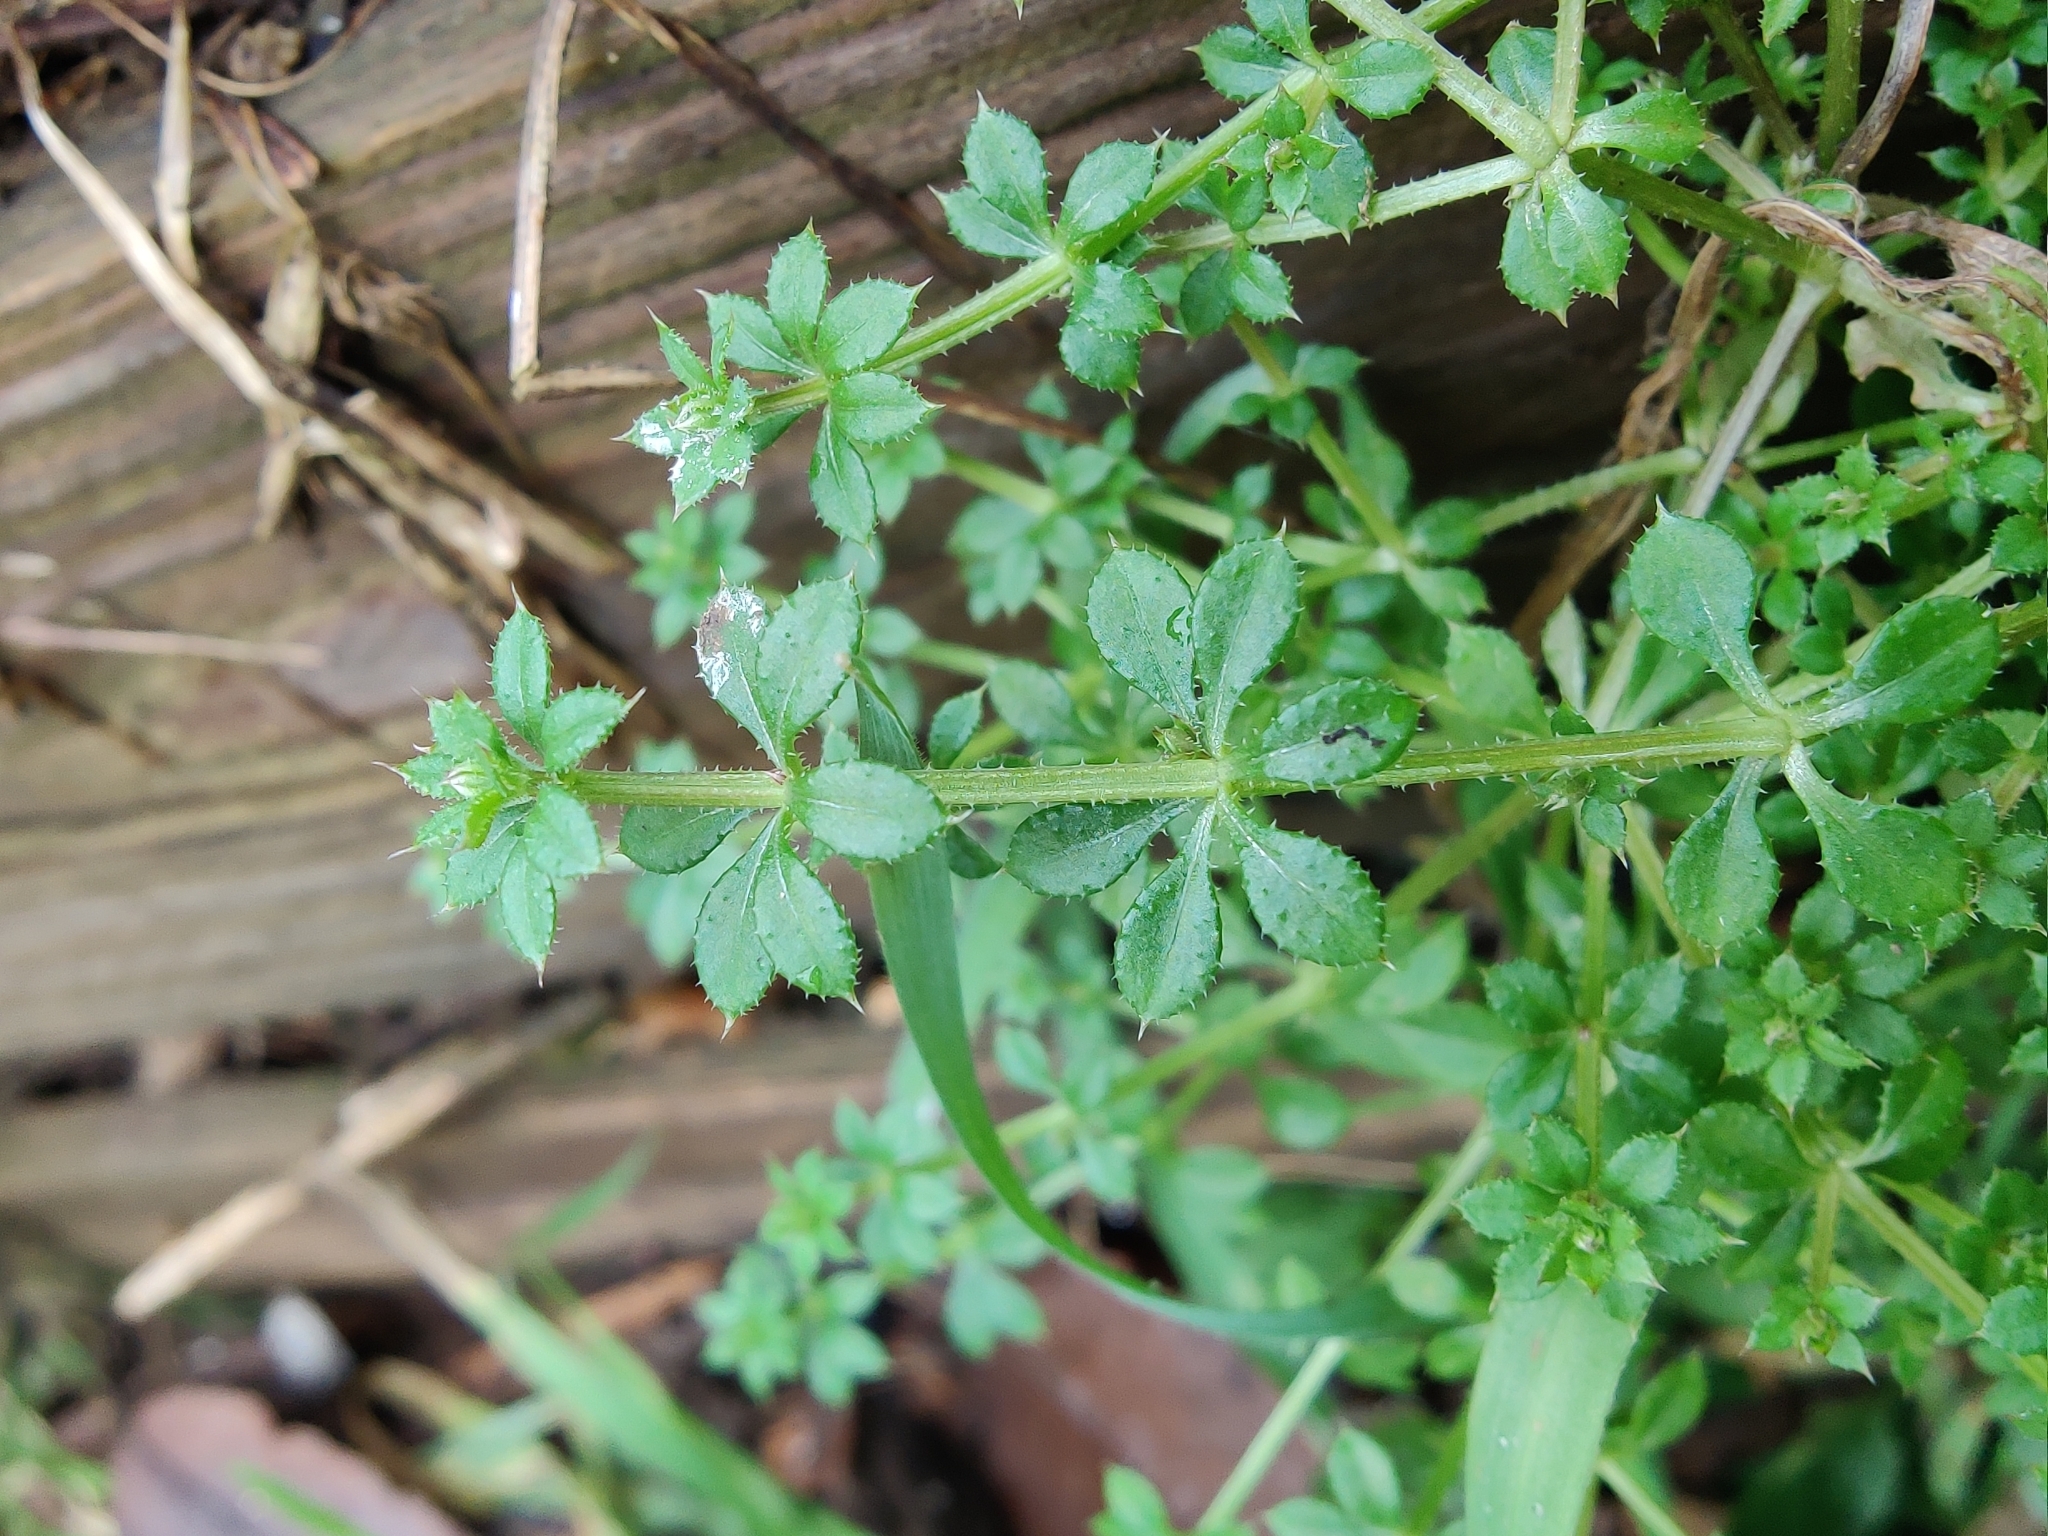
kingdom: Plantae
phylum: Tracheophyta
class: Magnoliopsida
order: Gentianales
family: Rubiaceae
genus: Galium
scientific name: Galium aparine
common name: Cleavers
